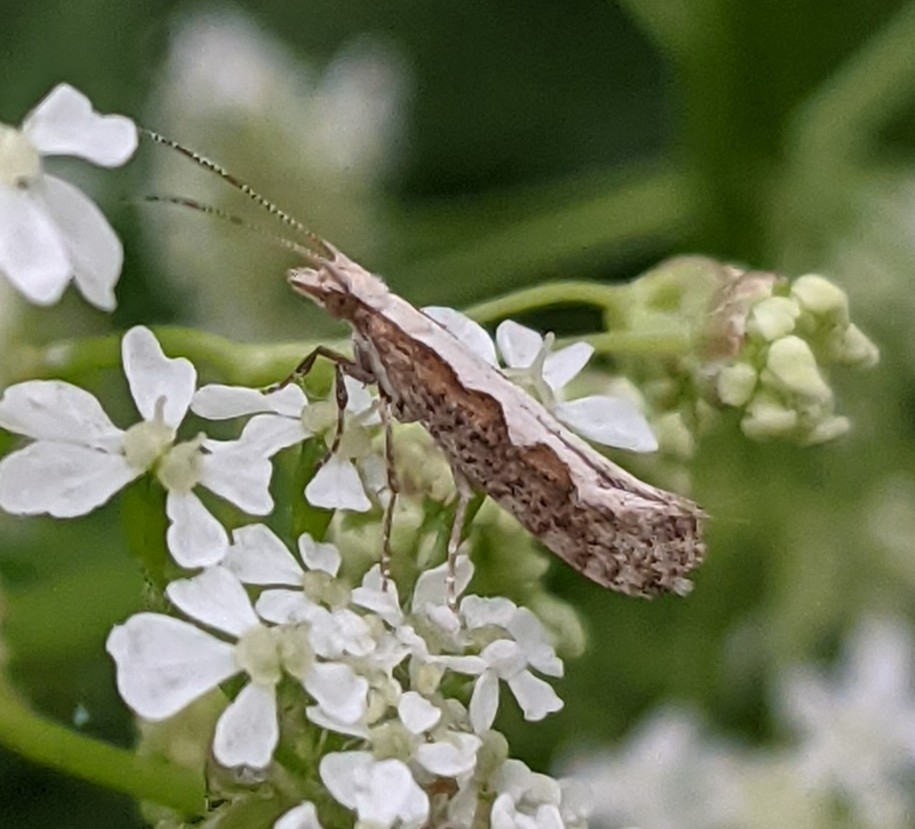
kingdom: Animalia
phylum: Arthropoda
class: Insecta
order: Lepidoptera
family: Plutellidae
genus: Plutella
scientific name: Plutella xylostella
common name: Diamond-back moth
